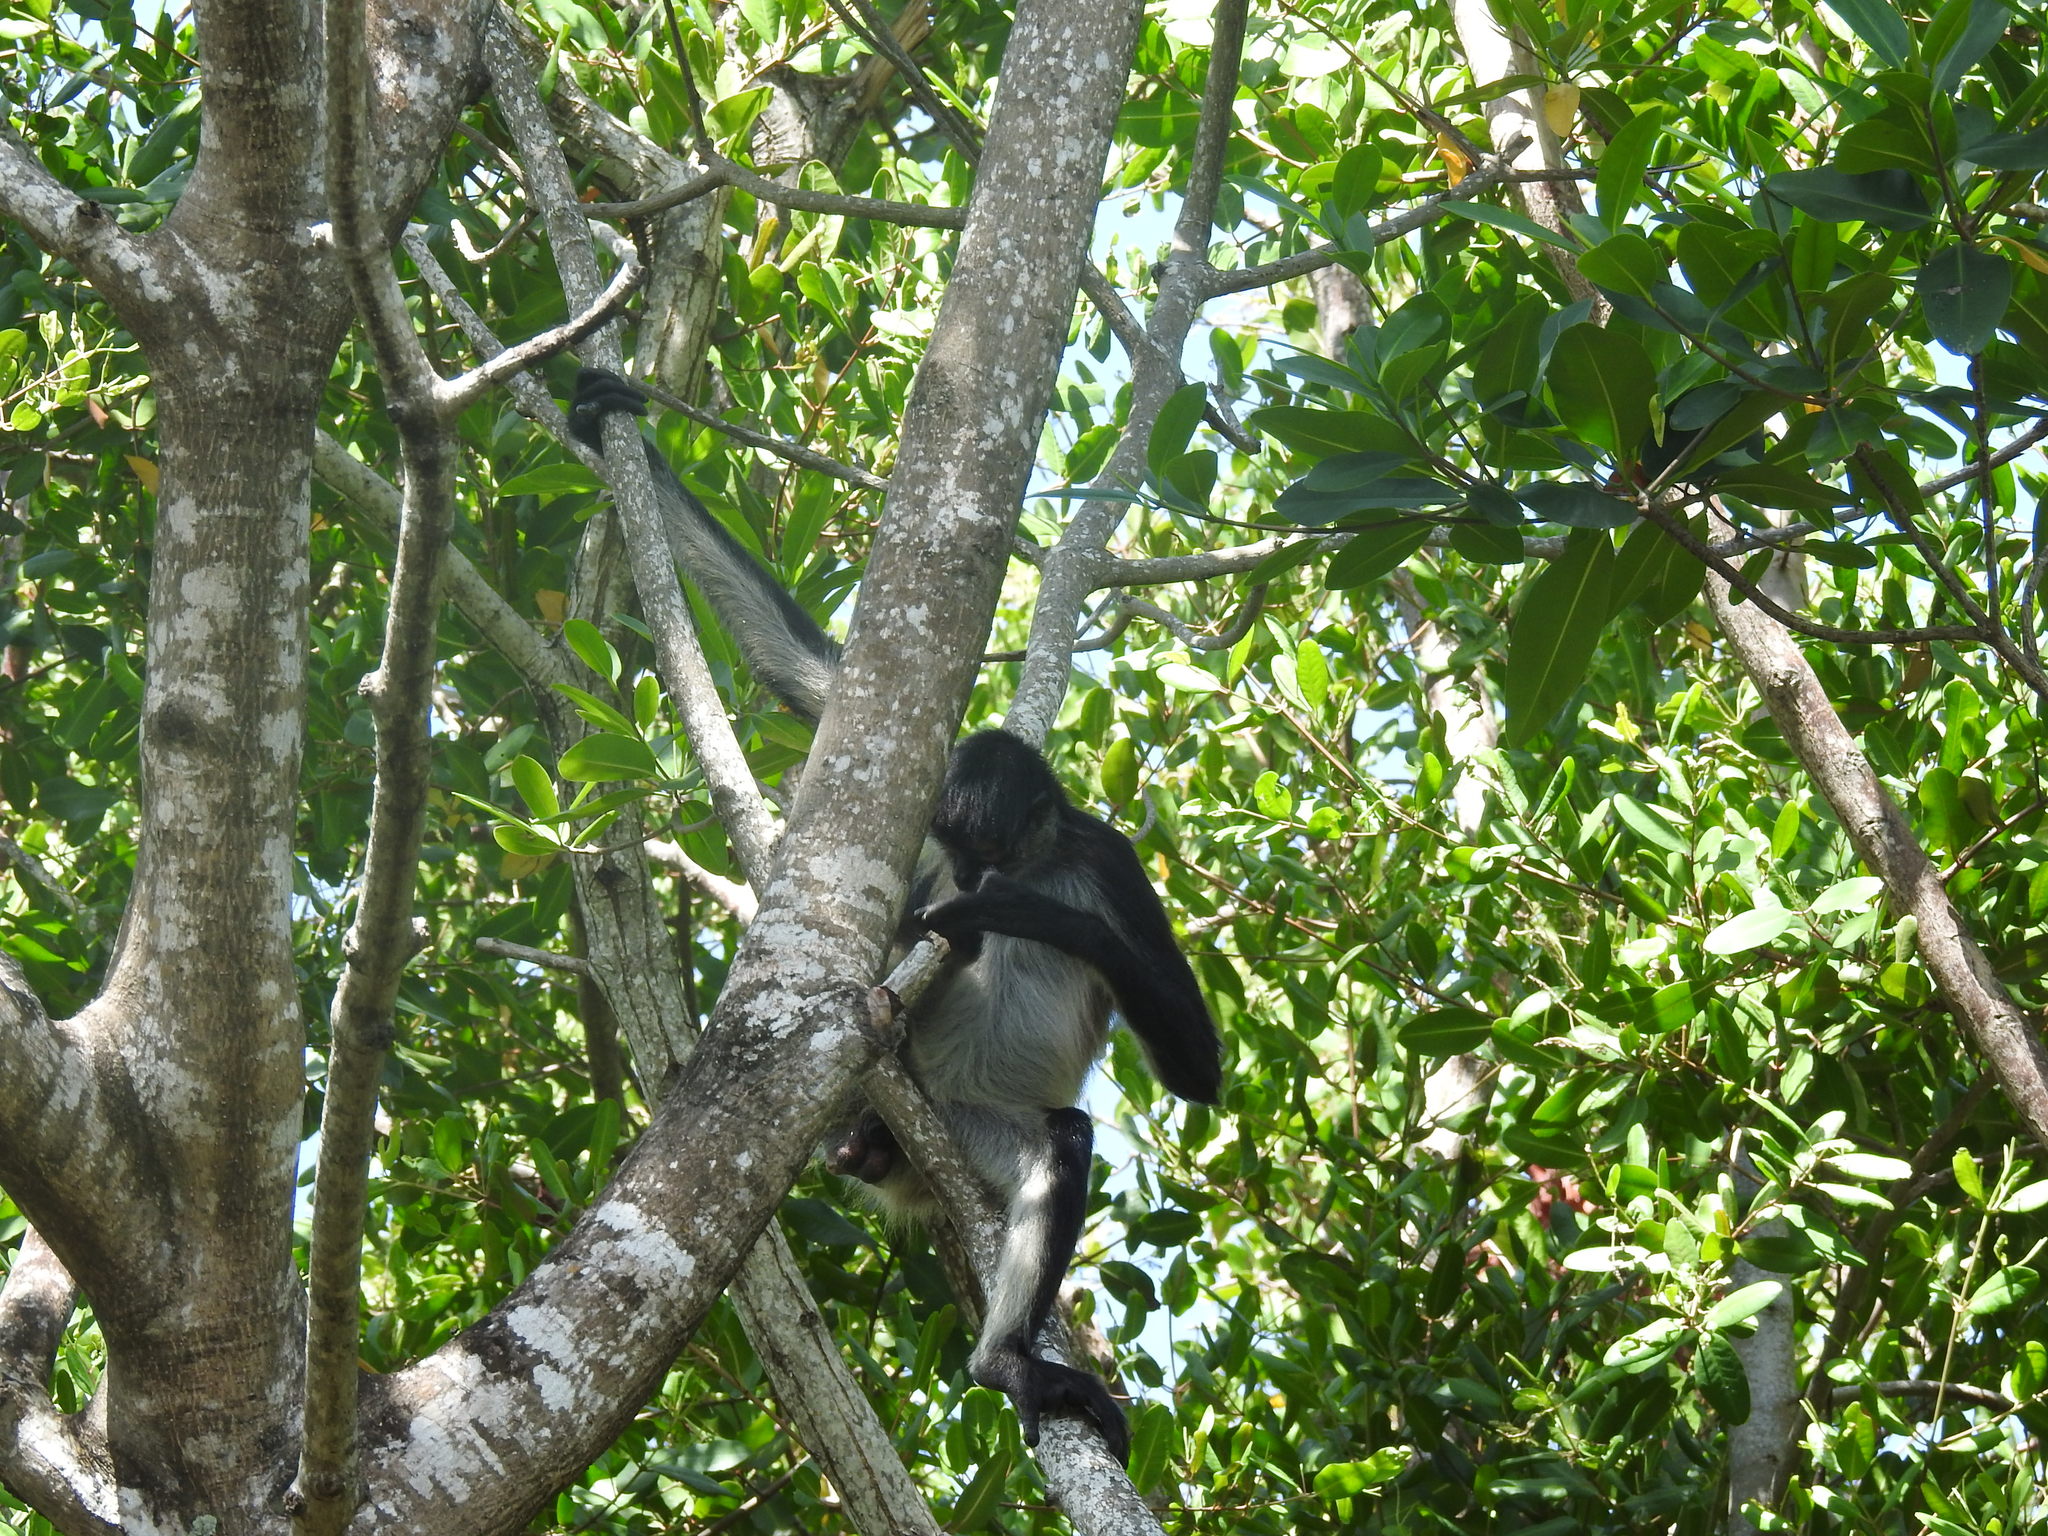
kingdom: Animalia
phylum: Chordata
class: Mammalia
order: Primates
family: Atelidae
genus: Ateles
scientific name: Ateles geoffroyi
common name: Black-handed spider monkey
